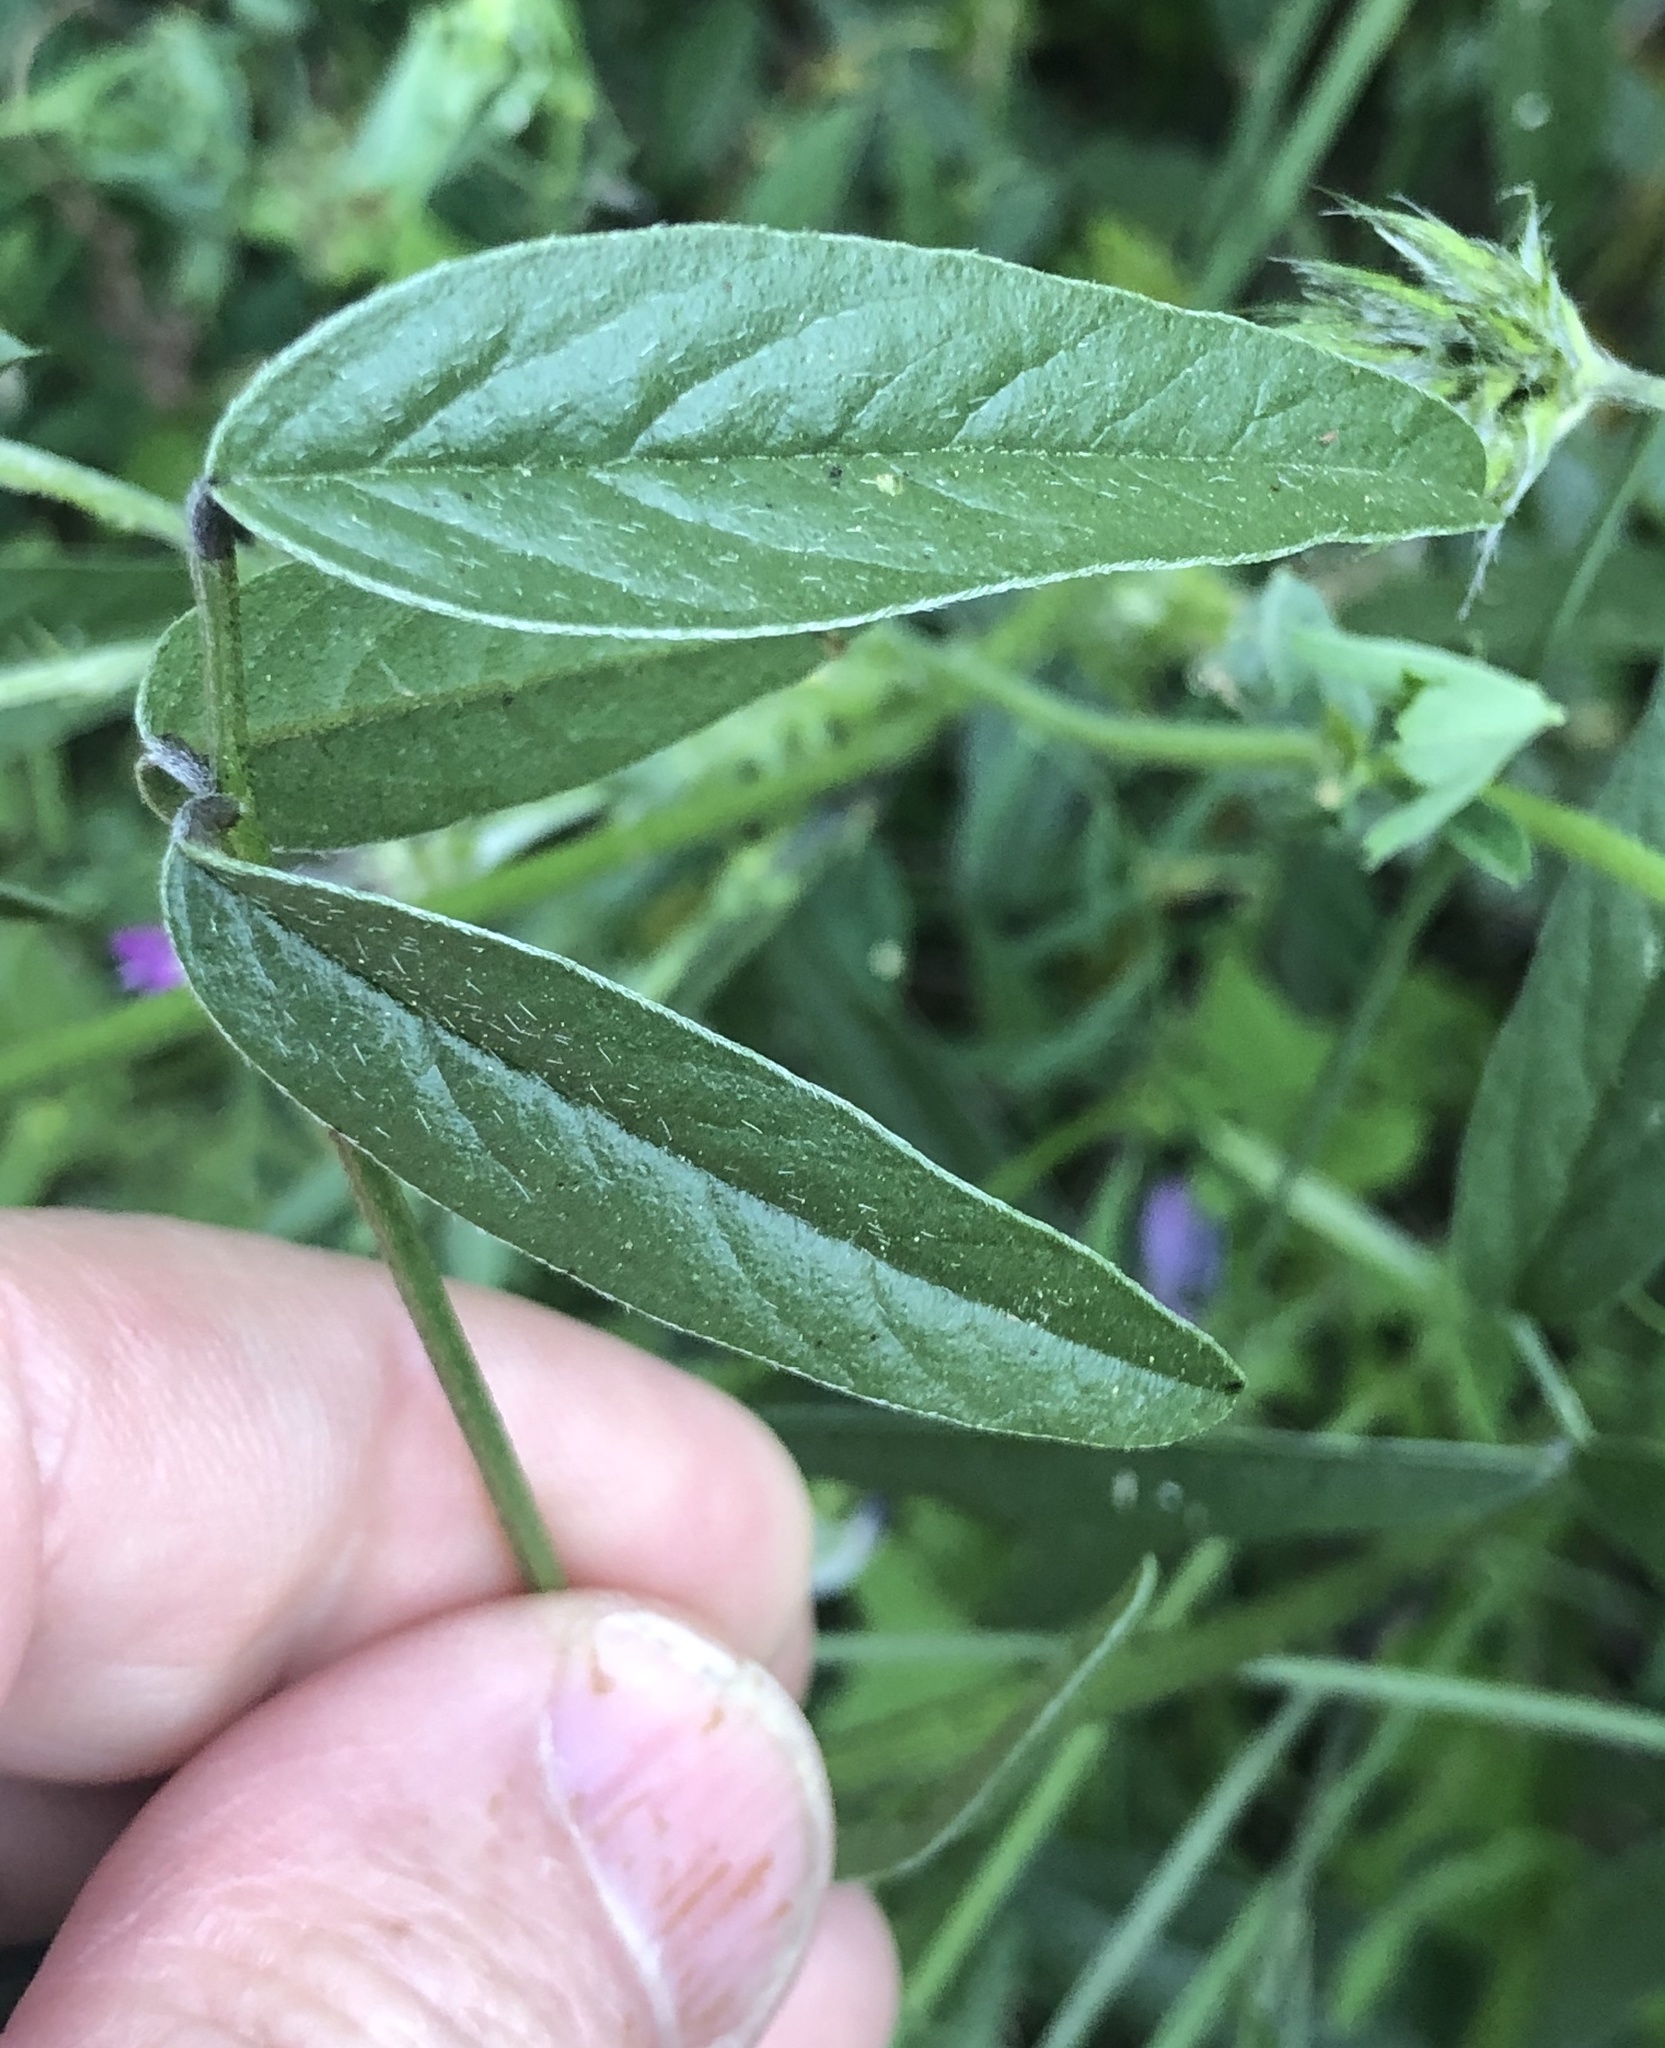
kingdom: Plantae
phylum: Tracheophyta
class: Magnoliopsida
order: Fabales
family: Fabaceae
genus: Bituminaria
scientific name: Bituminaria bituminosa
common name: Arabian pea
